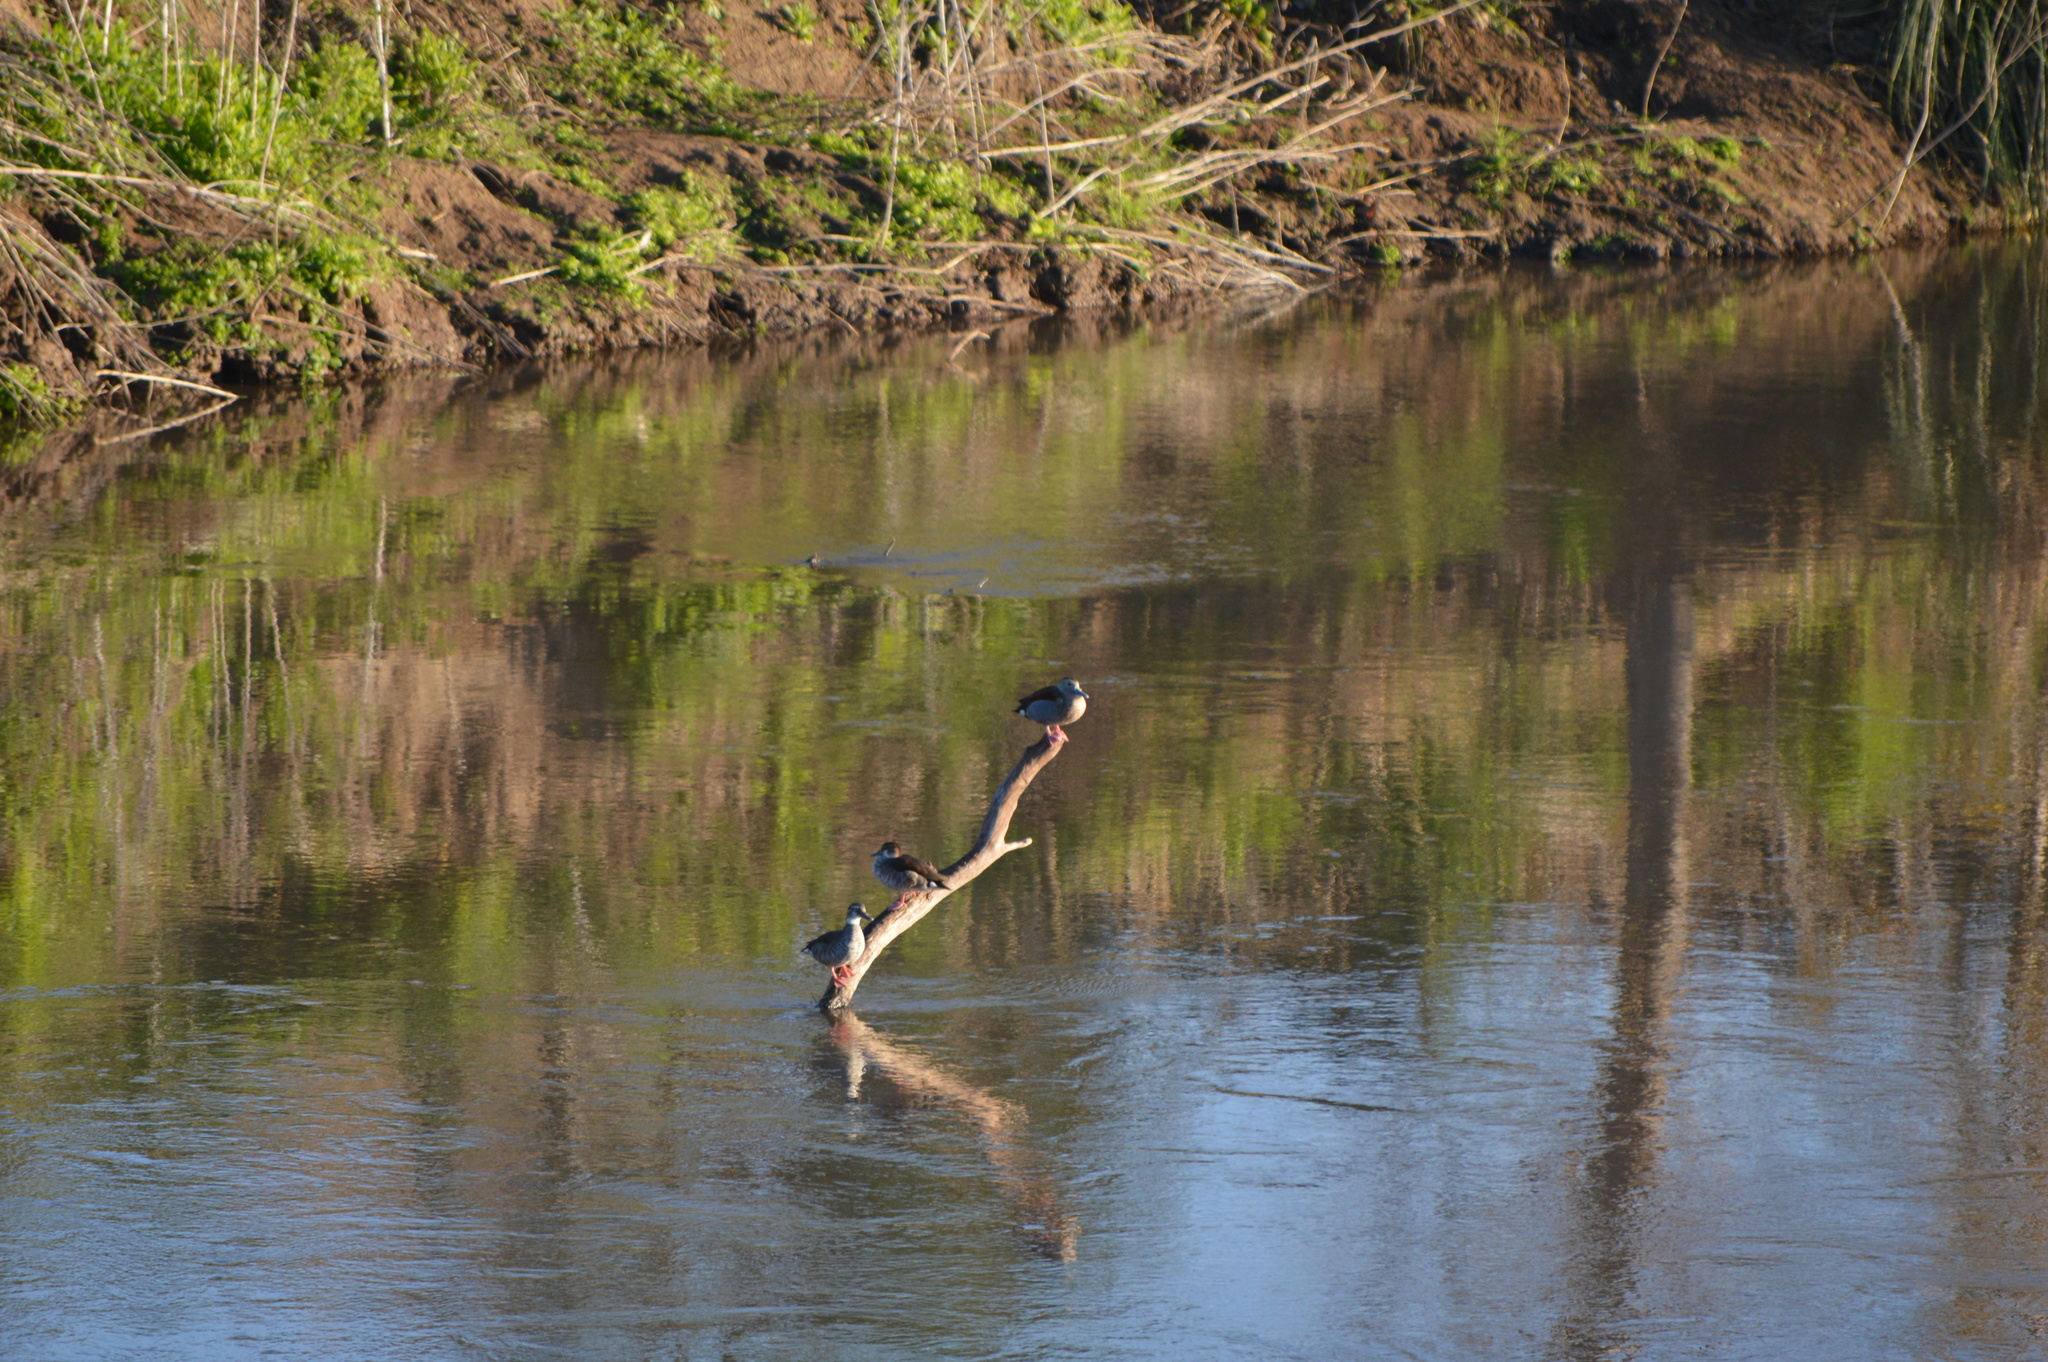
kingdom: Animalia
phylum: Chordata
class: Aves
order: Anseriformes
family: Anatidae
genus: Callonetta
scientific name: Callonetta leucophrys
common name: Ringed teal
